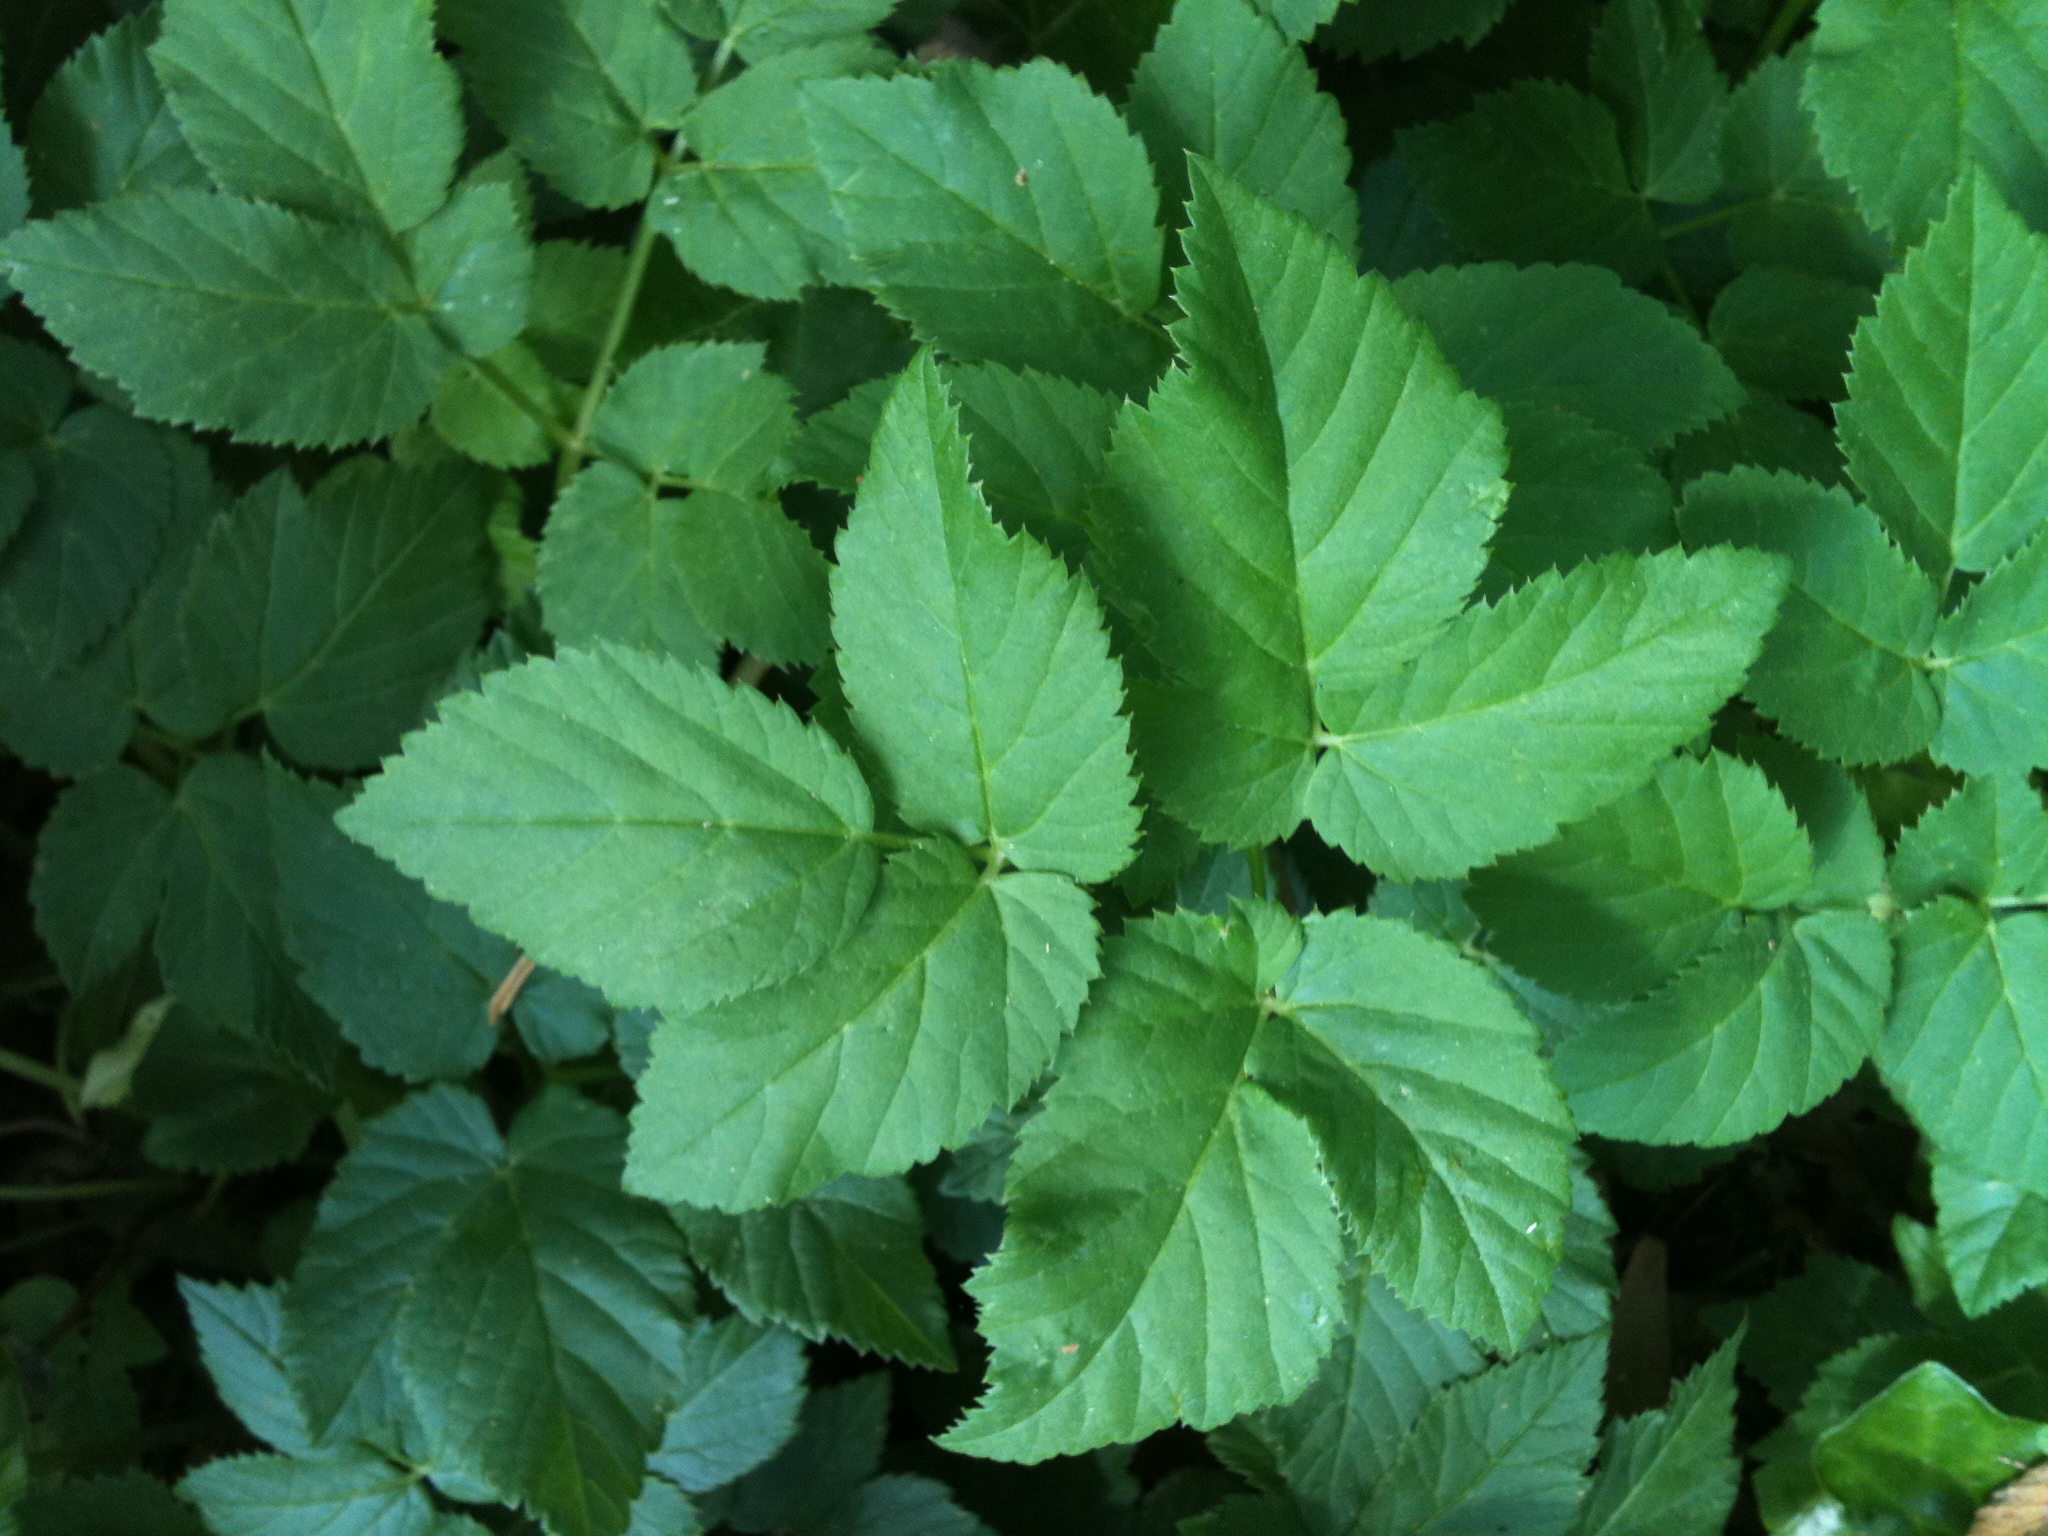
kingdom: Plantae
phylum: Tracheophyta
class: Magnoliopsida
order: Apiales
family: Apiaceae
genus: Aegopodium
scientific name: Aegopodium podagraria
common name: Ground-elder
